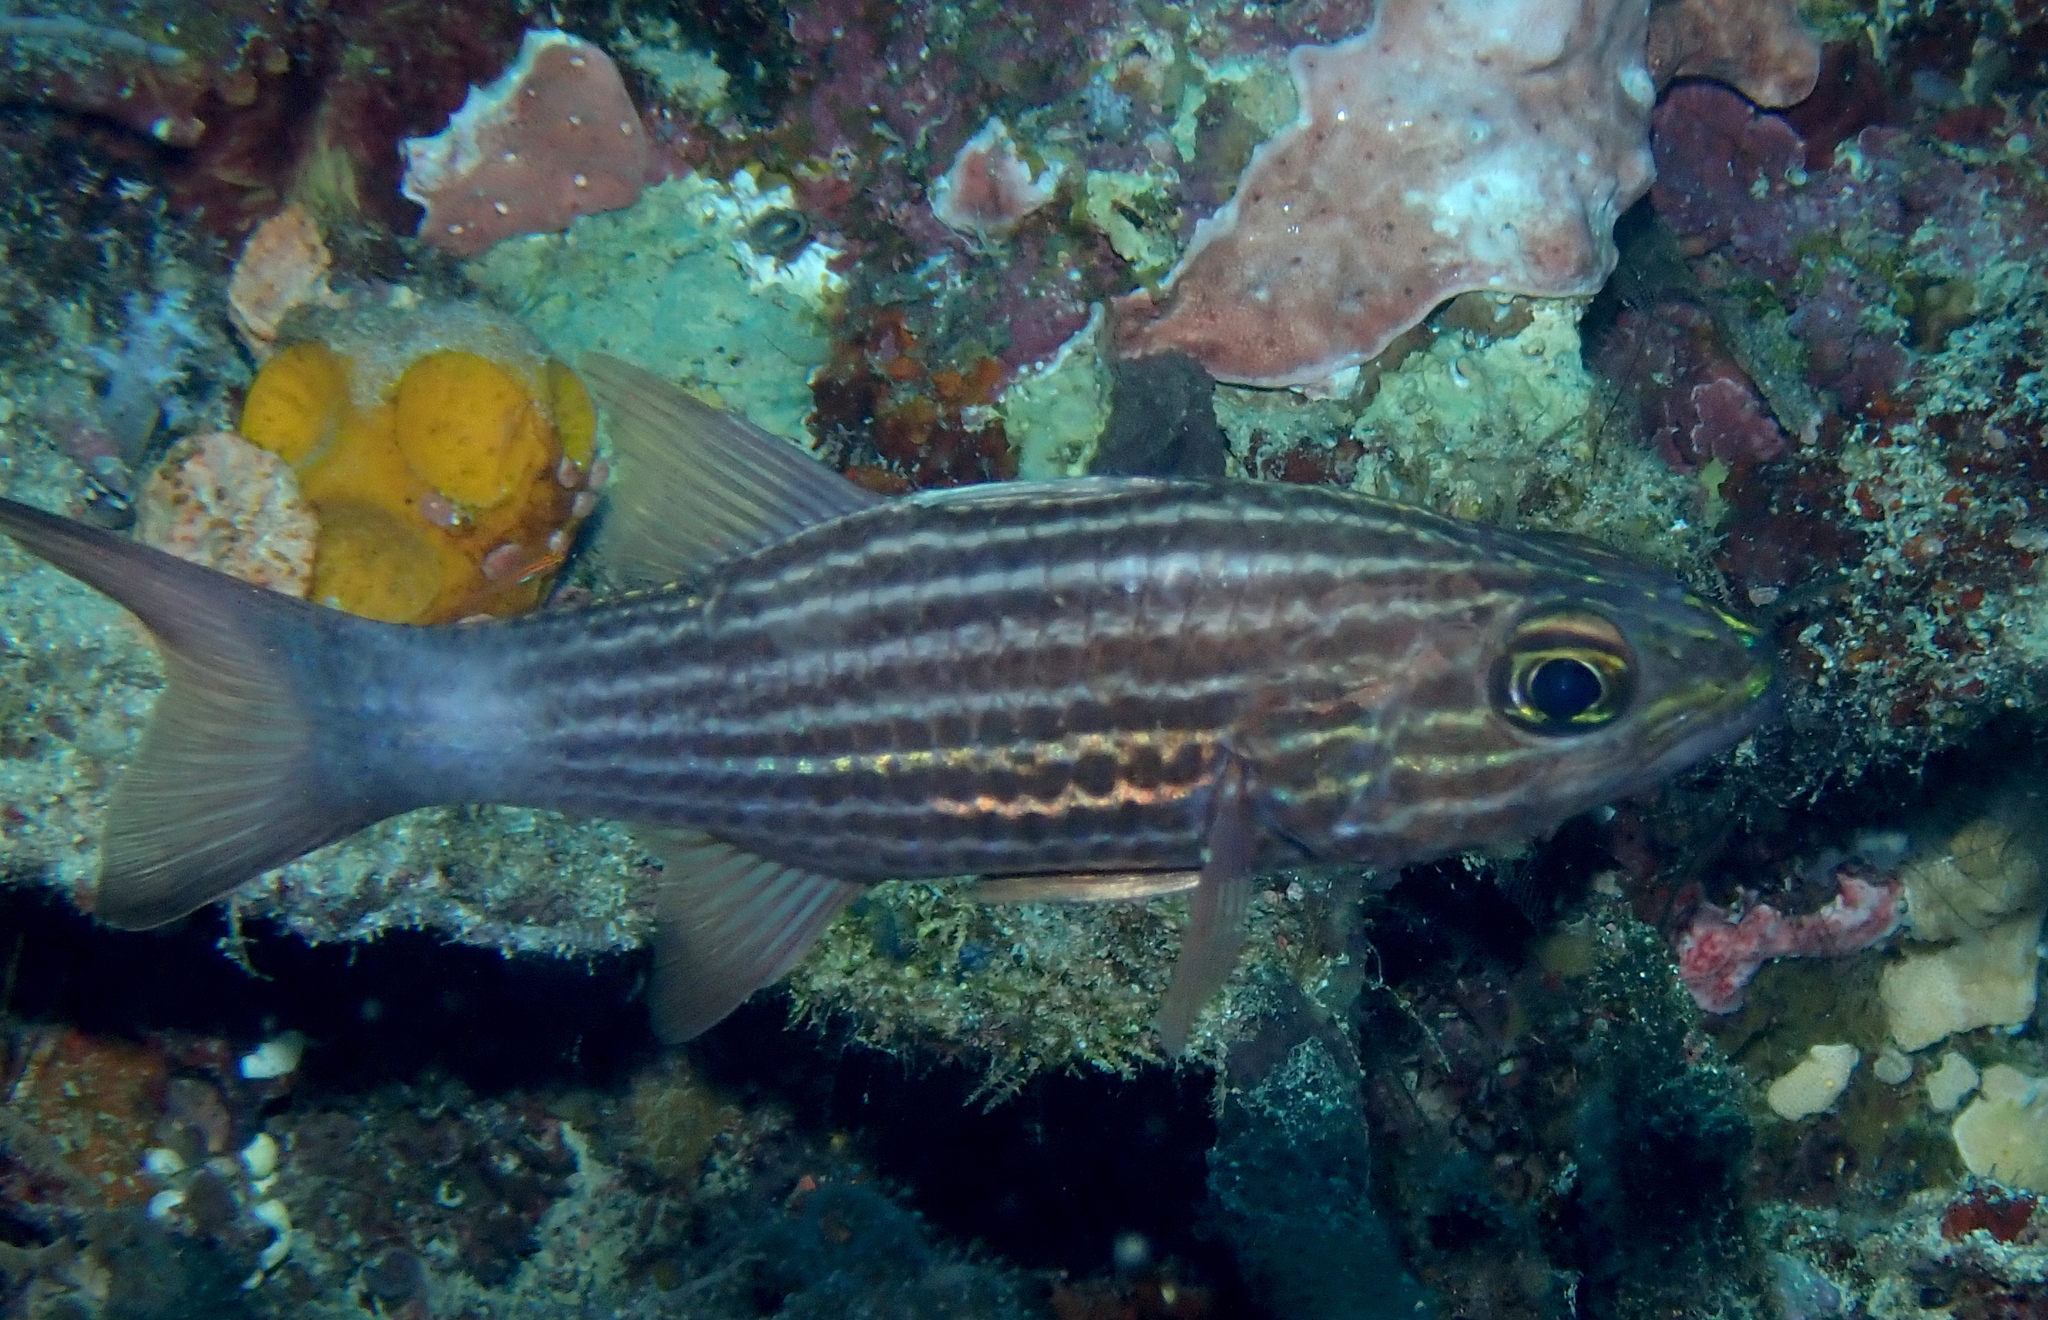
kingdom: Animalia
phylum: Chordata
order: Perciformes
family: Apogonidae
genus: Cheilodipterus
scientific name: Cheilodipterus intermedius
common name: Intermediate cardinalfish
